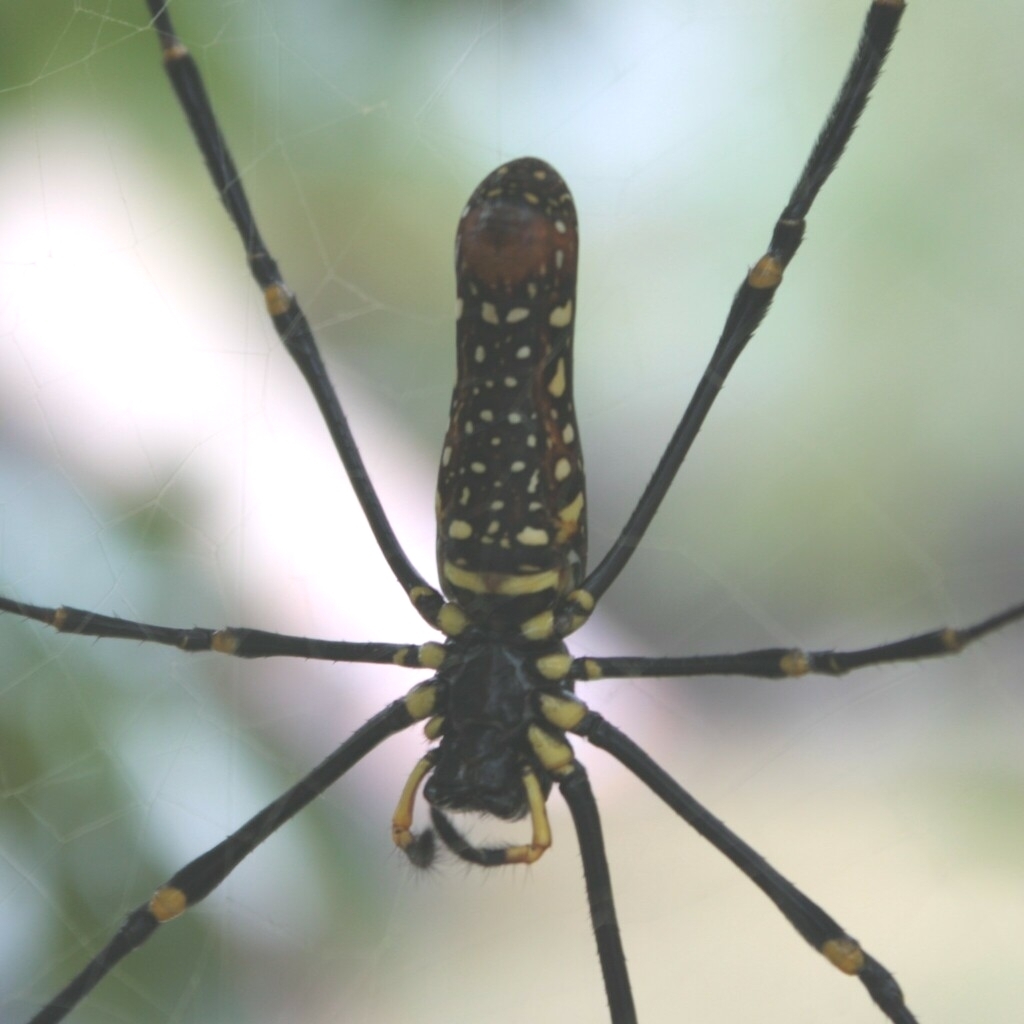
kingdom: Animalia
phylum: Arthropoda
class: Arachnida
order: Araneae
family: Araneidae
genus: Nephila
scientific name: Nephila pilipes
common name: Giant golden orb weaver
